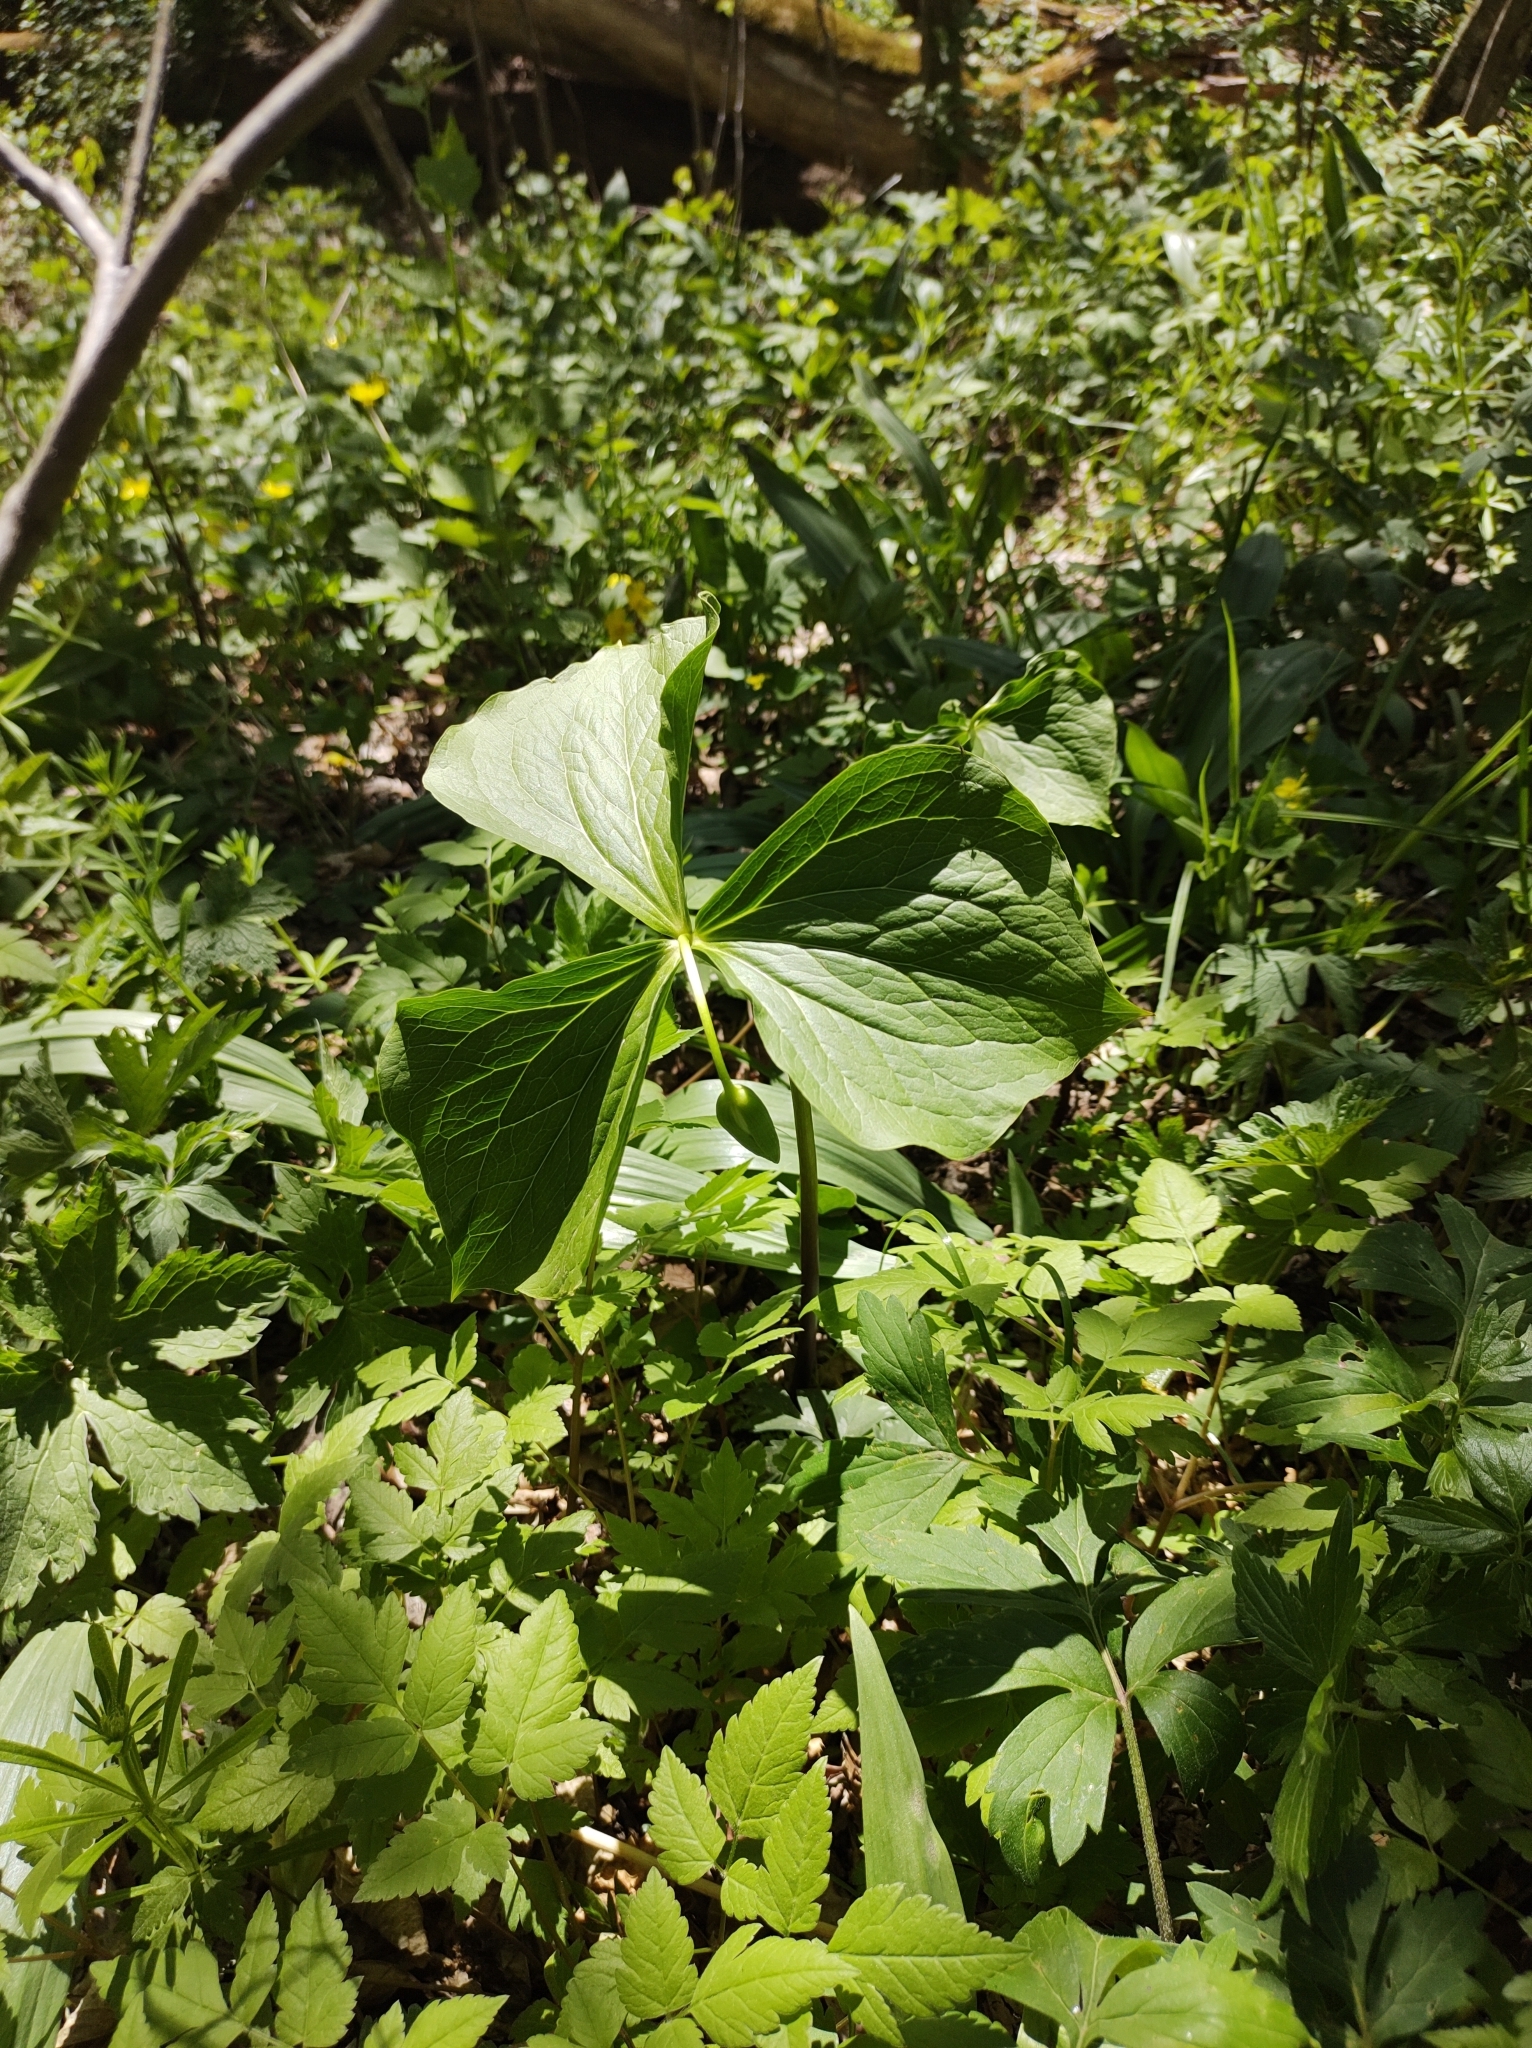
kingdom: Plantae
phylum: Tracheophyta
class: Liliopsida
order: Liliales
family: Melanthiaceae
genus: Trillium
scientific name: Trillium flexipes
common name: Drooping trillium
